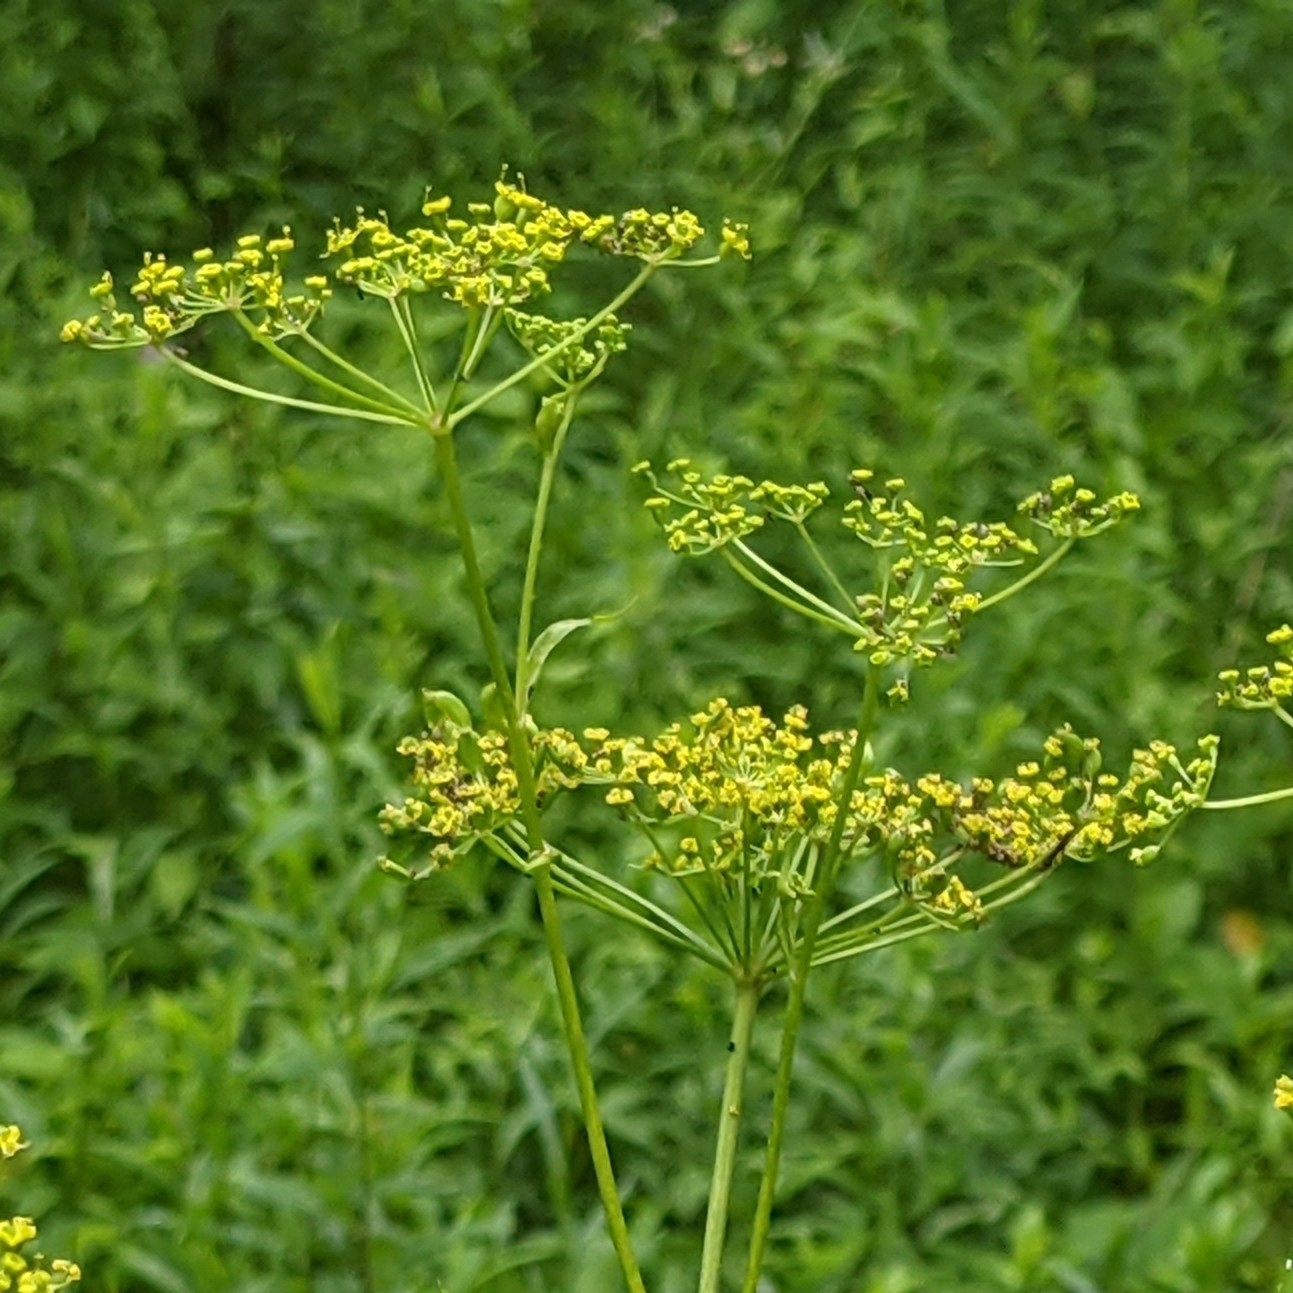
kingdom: Plantae
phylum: Tracheophyta
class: Magnoliopsida
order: Apiales
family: Apiaceae
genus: Pastinaca
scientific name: Pastinaca sativa
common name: Wild parsnip
